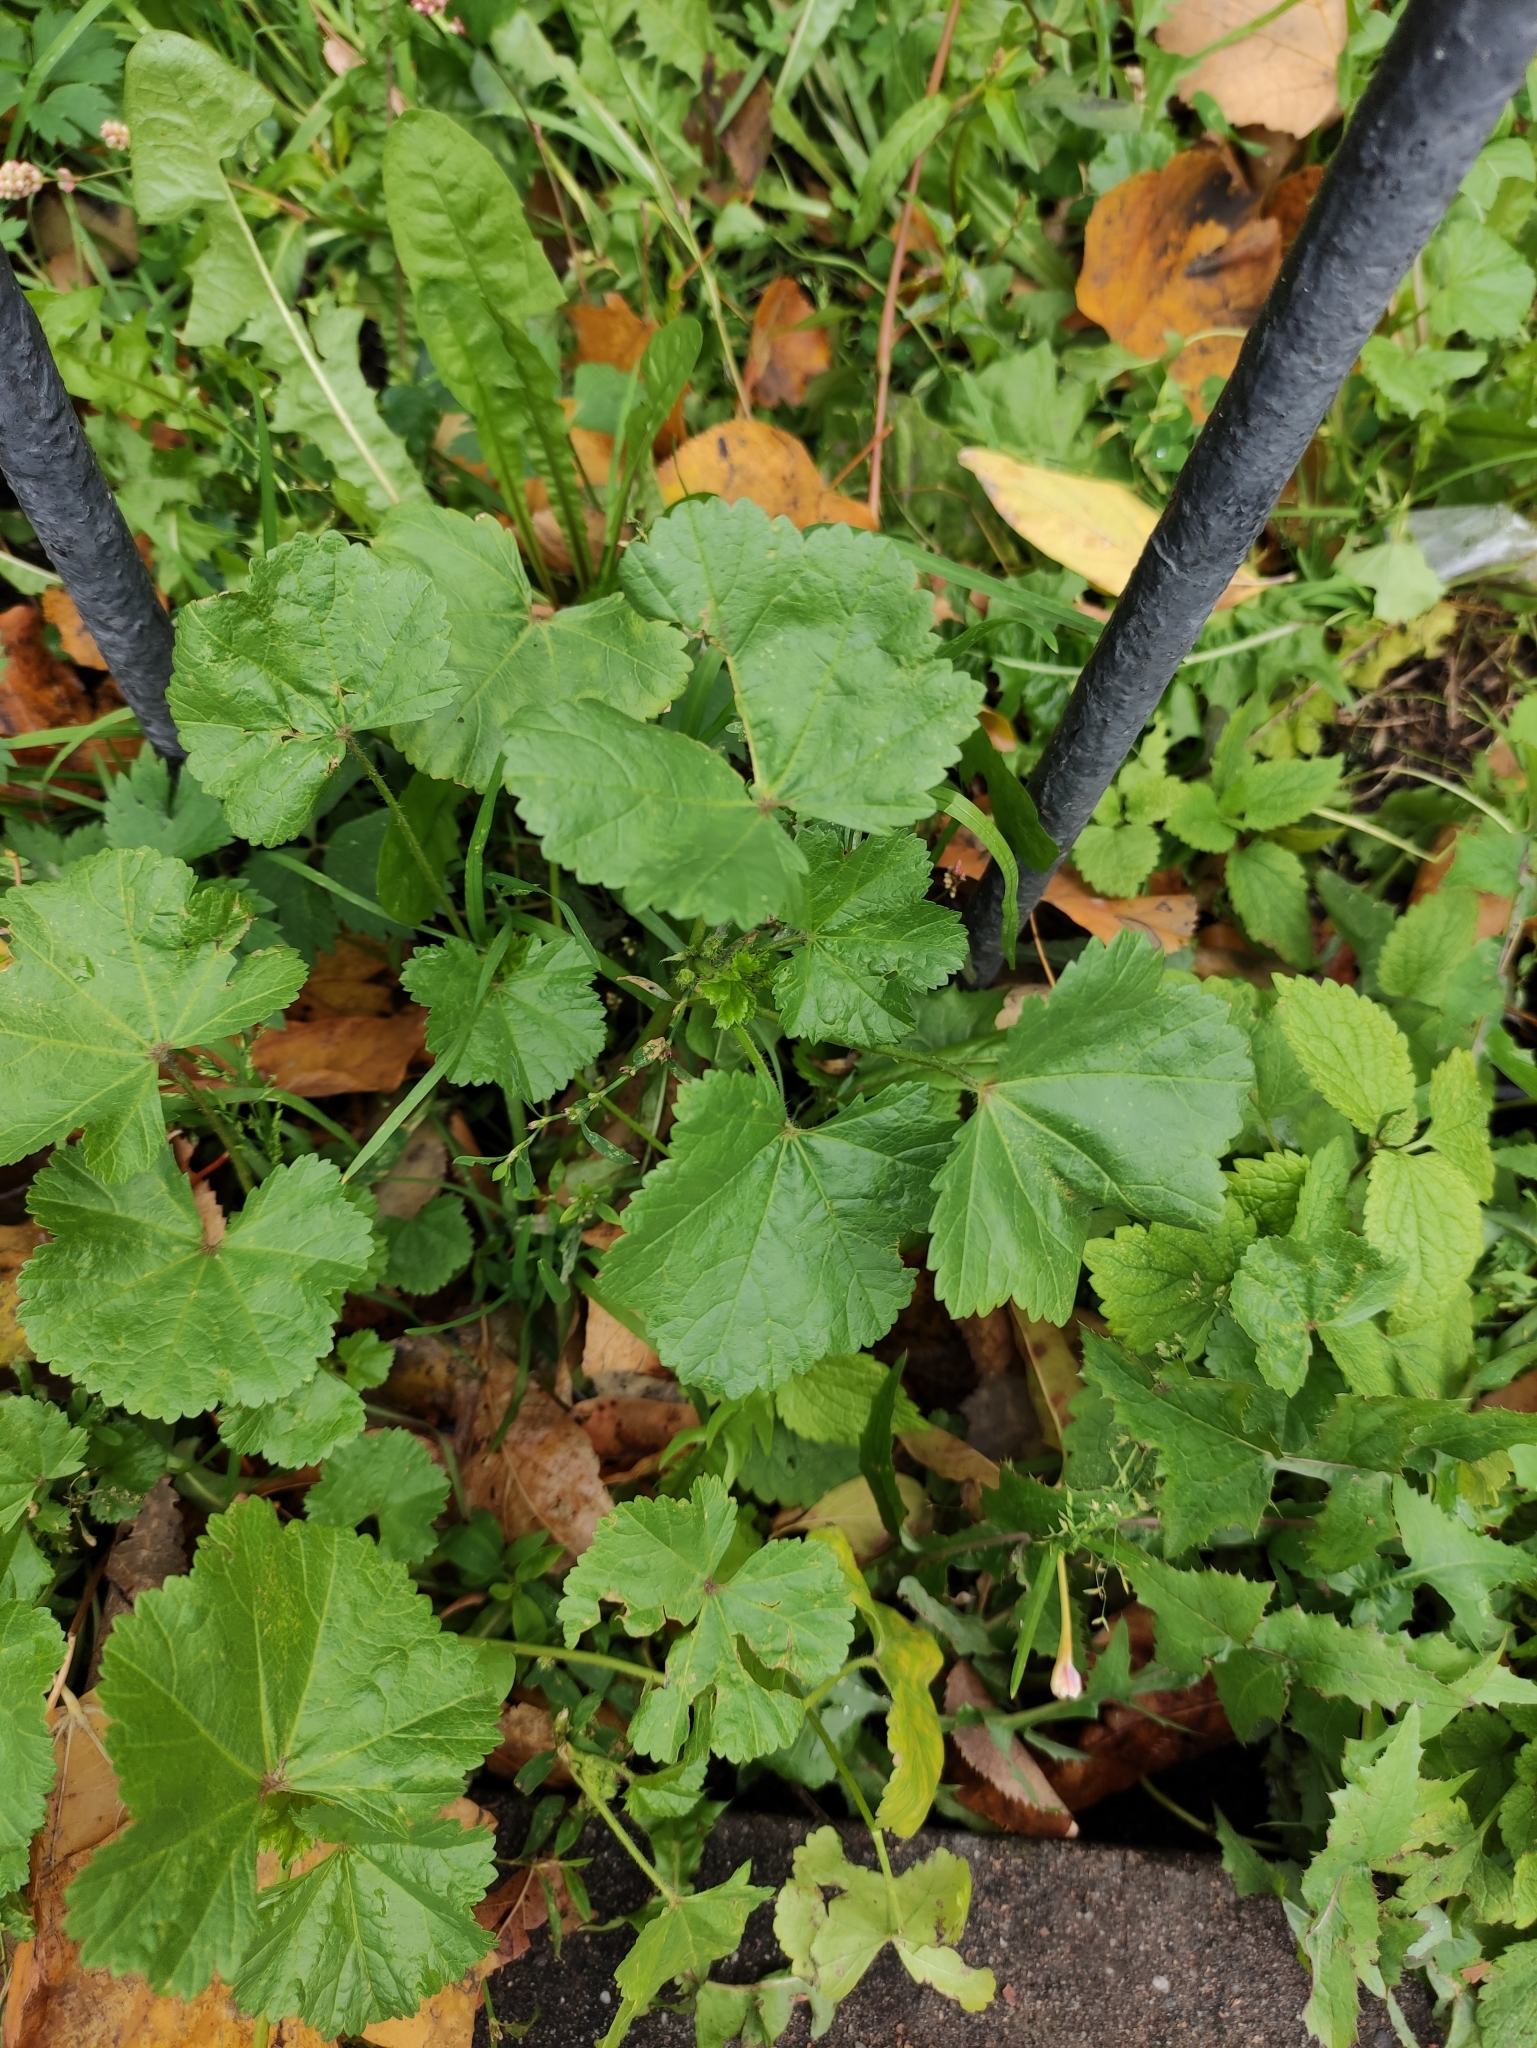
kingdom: Plantae
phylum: Tracheophyta
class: Magnoliopsida
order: Malvales
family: Malvaceae
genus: Malva
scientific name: Malva pusilla
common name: Small mallow
